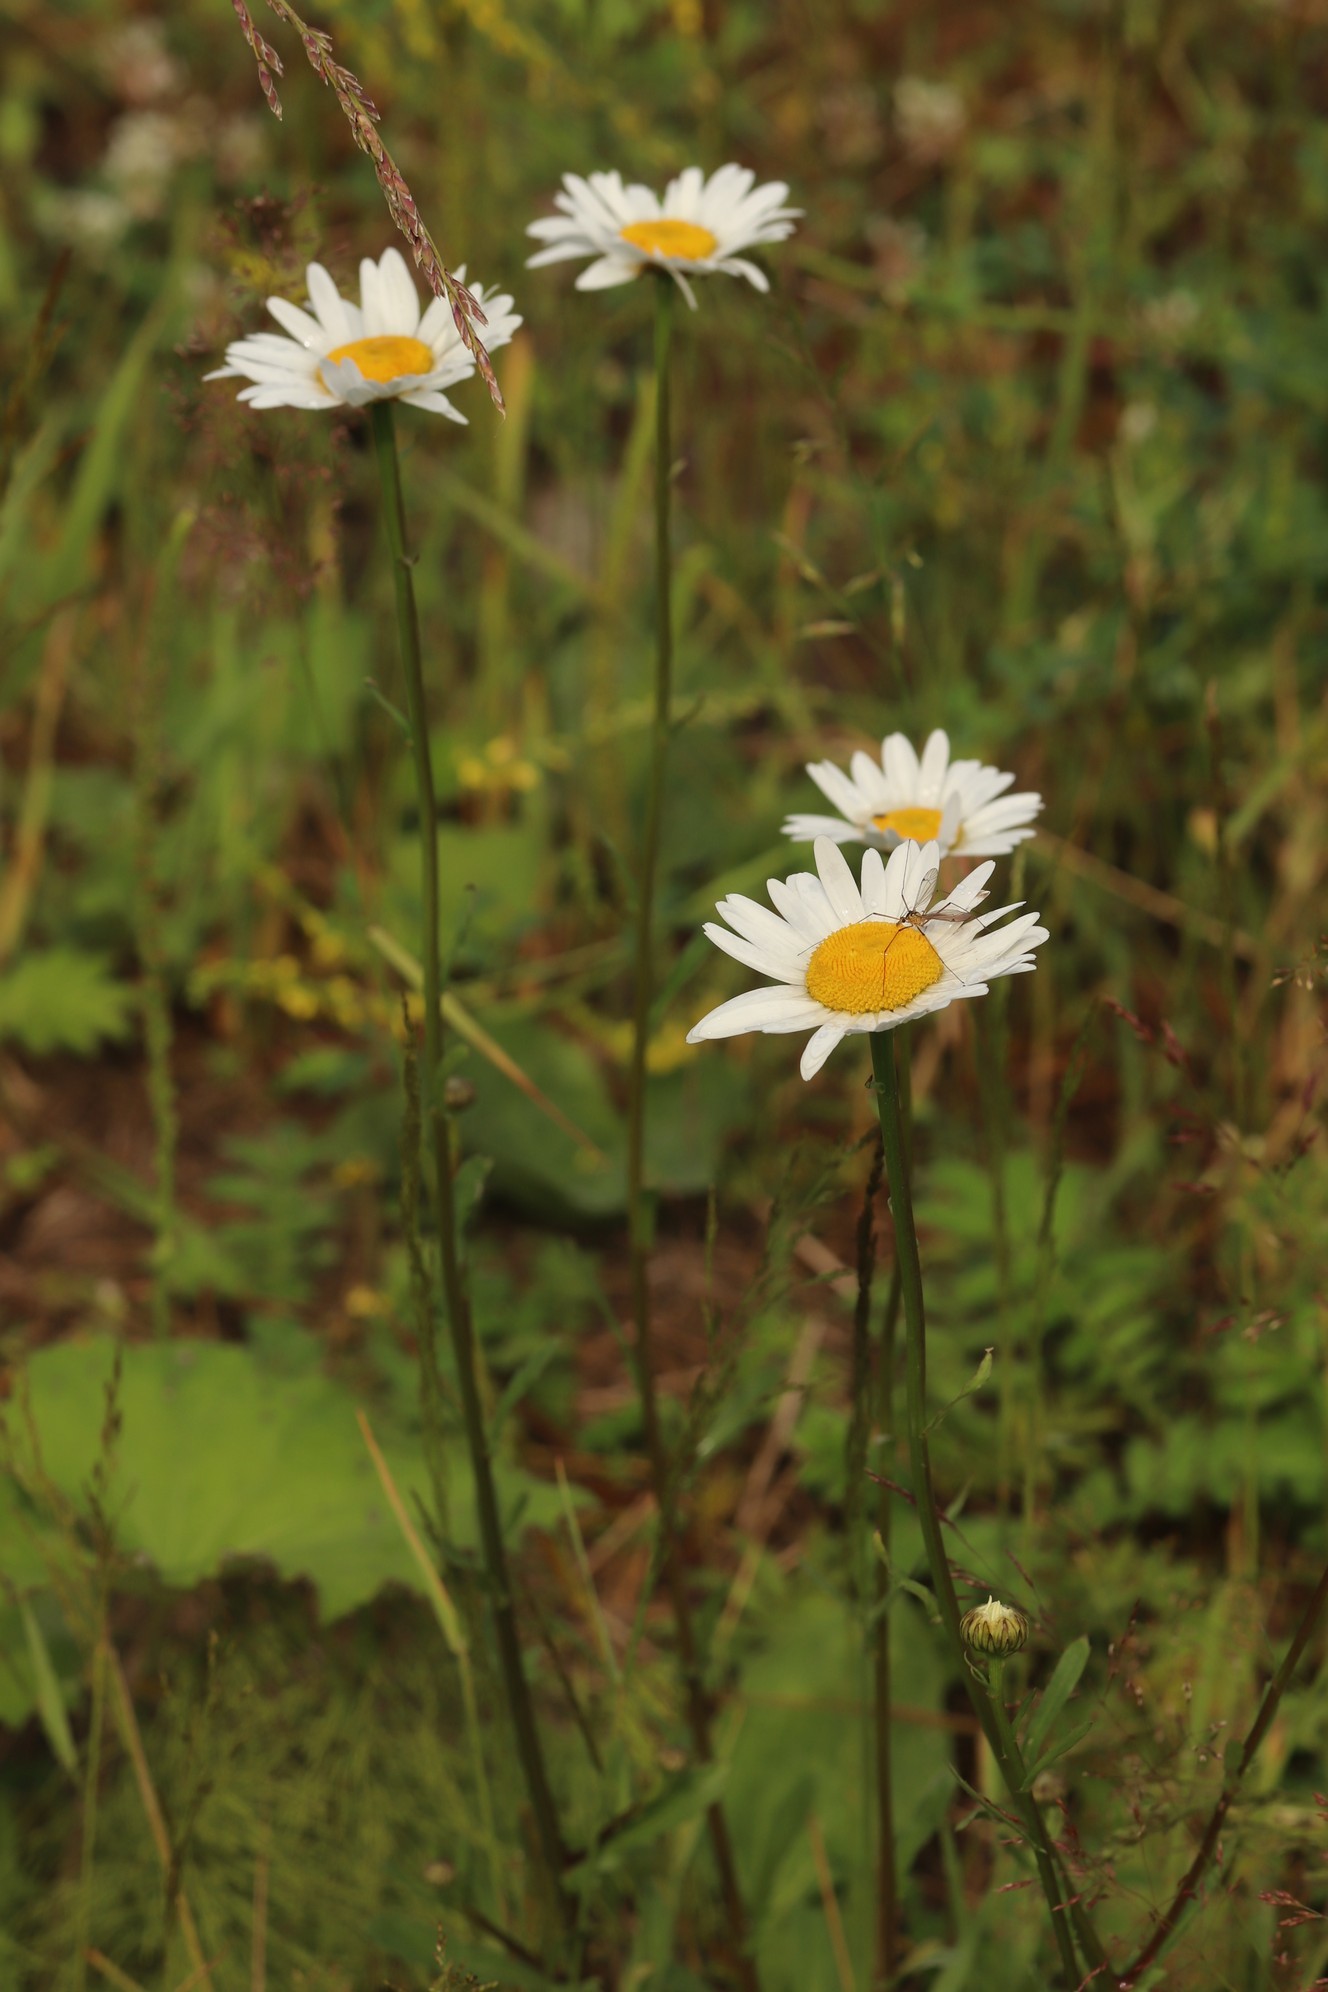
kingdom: Plantae
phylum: Tracheophyta
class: Magnoliopsida
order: Asterales
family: Asteraceae
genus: Leucanthemum
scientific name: Leucanthemum ircutianum
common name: Daisy
